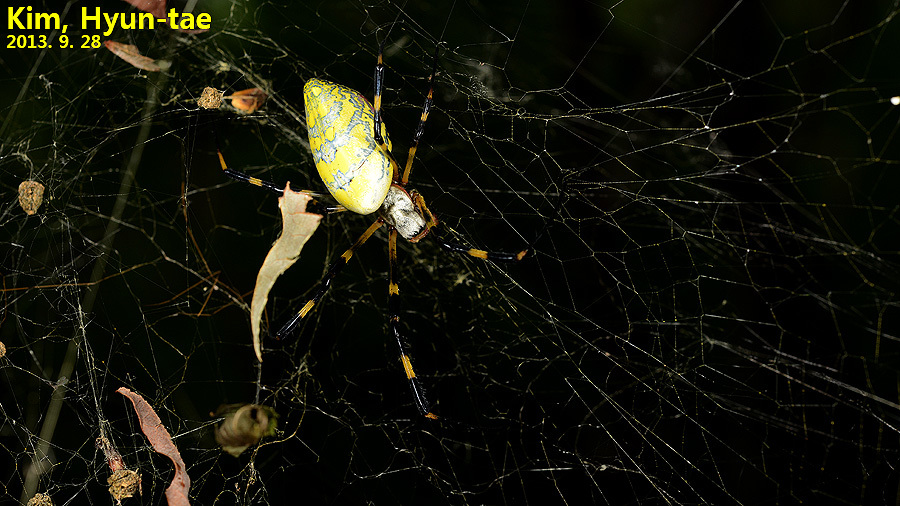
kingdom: Animalia
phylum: Arthropoda
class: Arachnida
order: Araneae
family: Araneidae
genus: Trichonephila
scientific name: Trichonephila clavata
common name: Jorō spider
